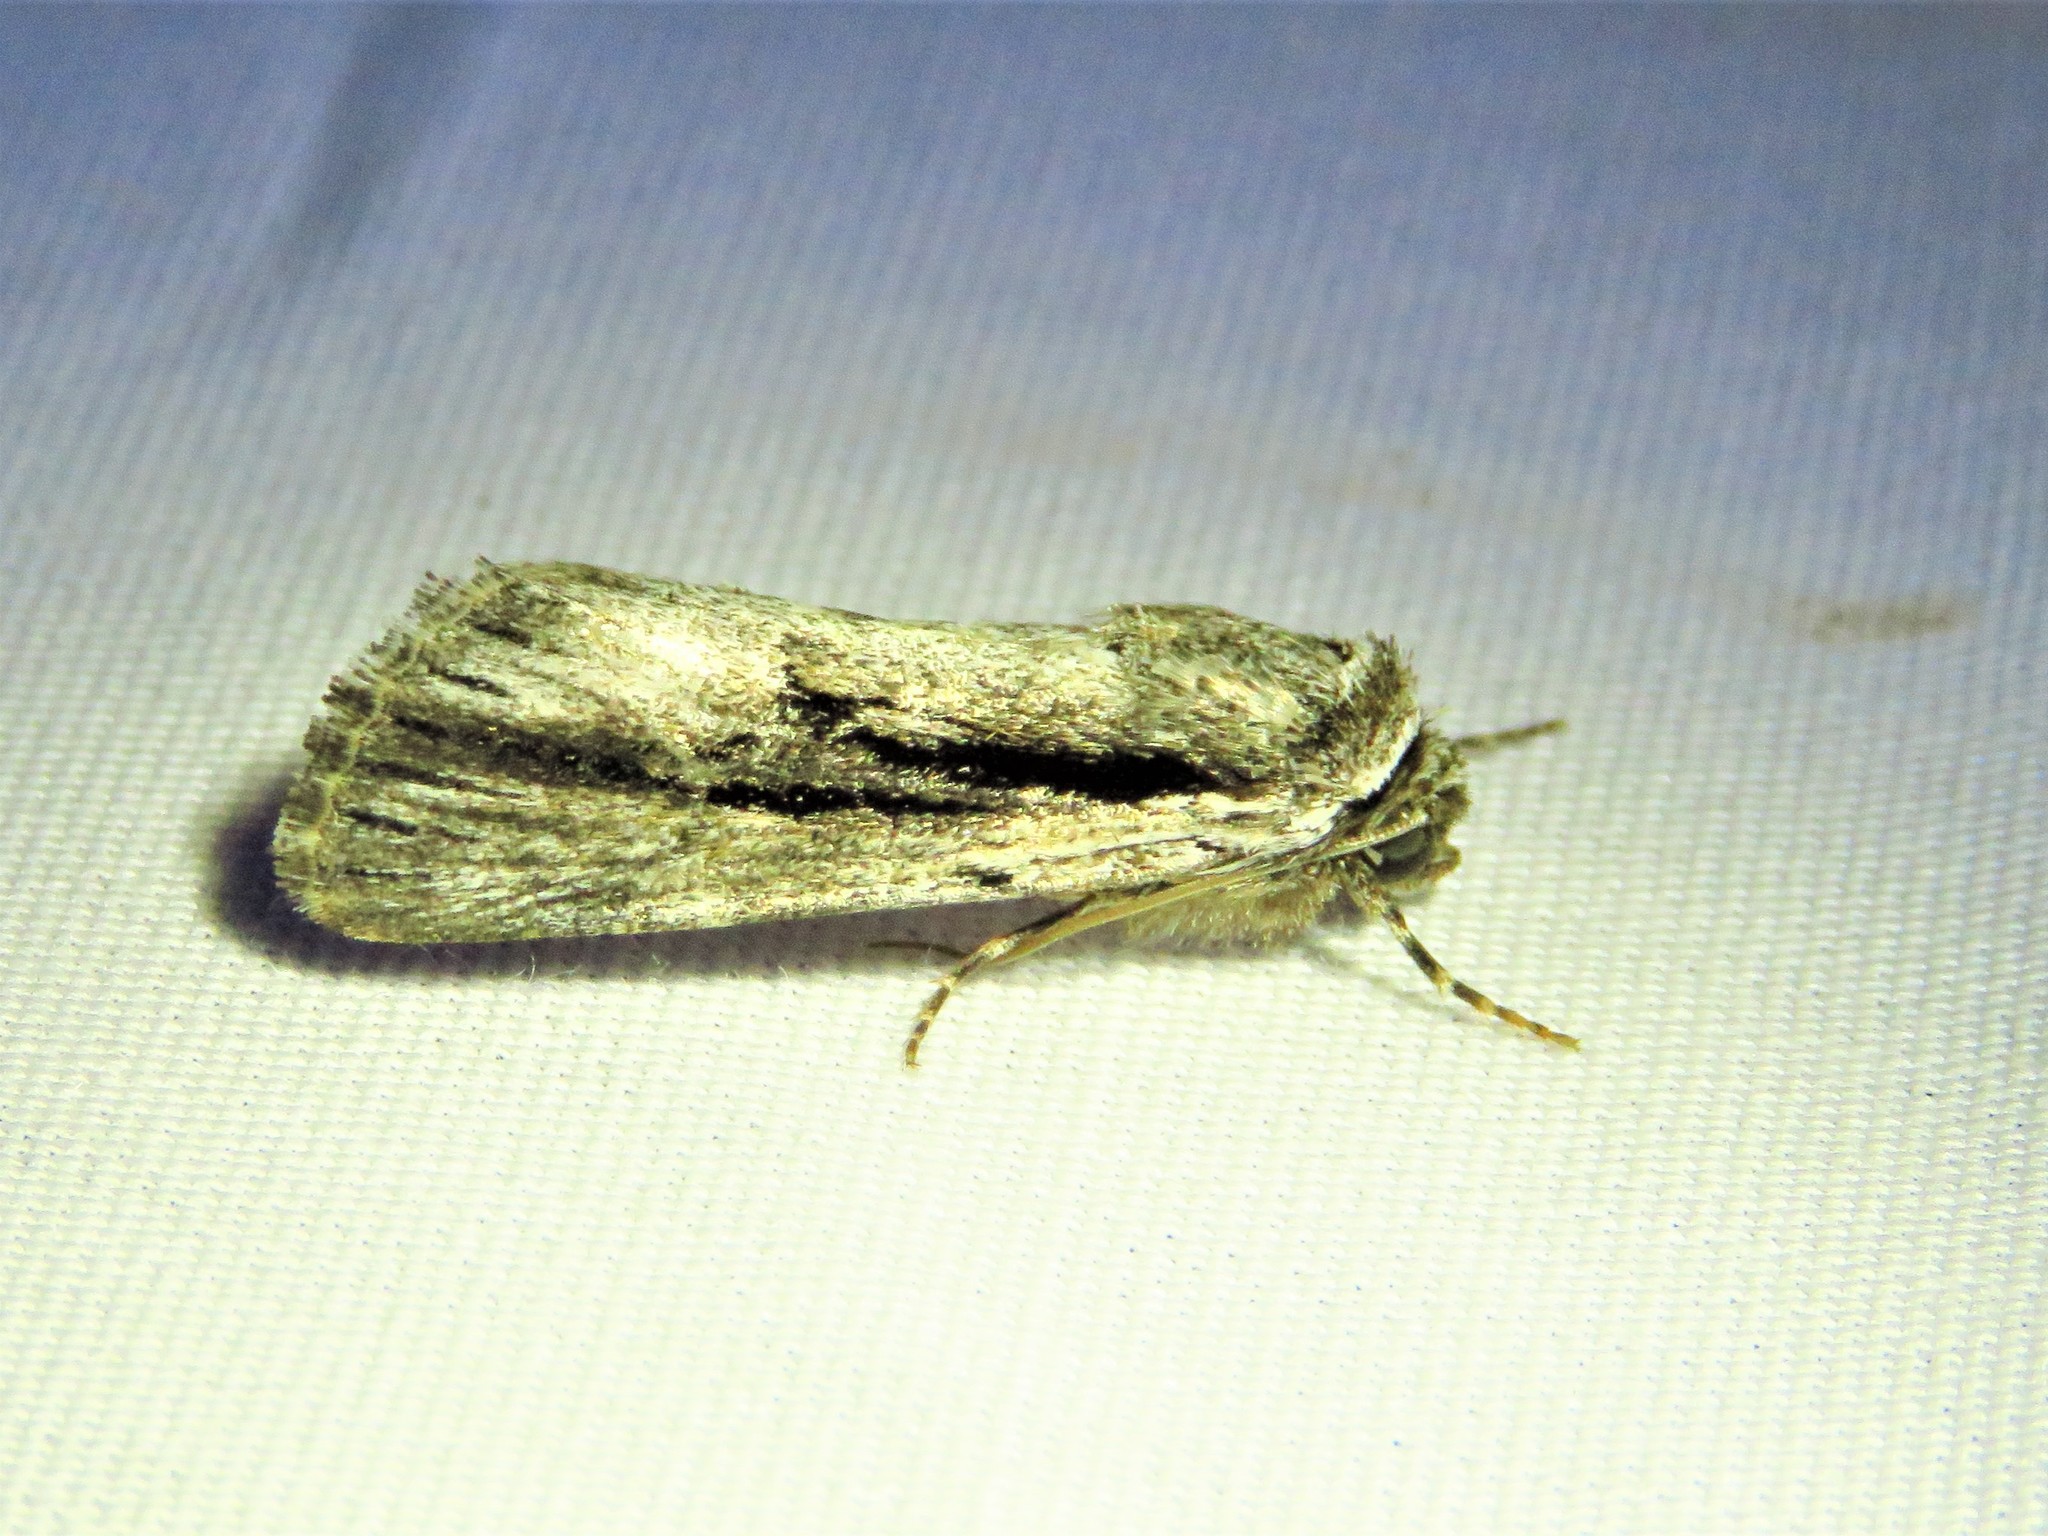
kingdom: Animalia
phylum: Arthropoda
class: Insecta
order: Lepidoptera
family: Noctuidae
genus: Catabenoides
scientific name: Catabenoides terminellus
